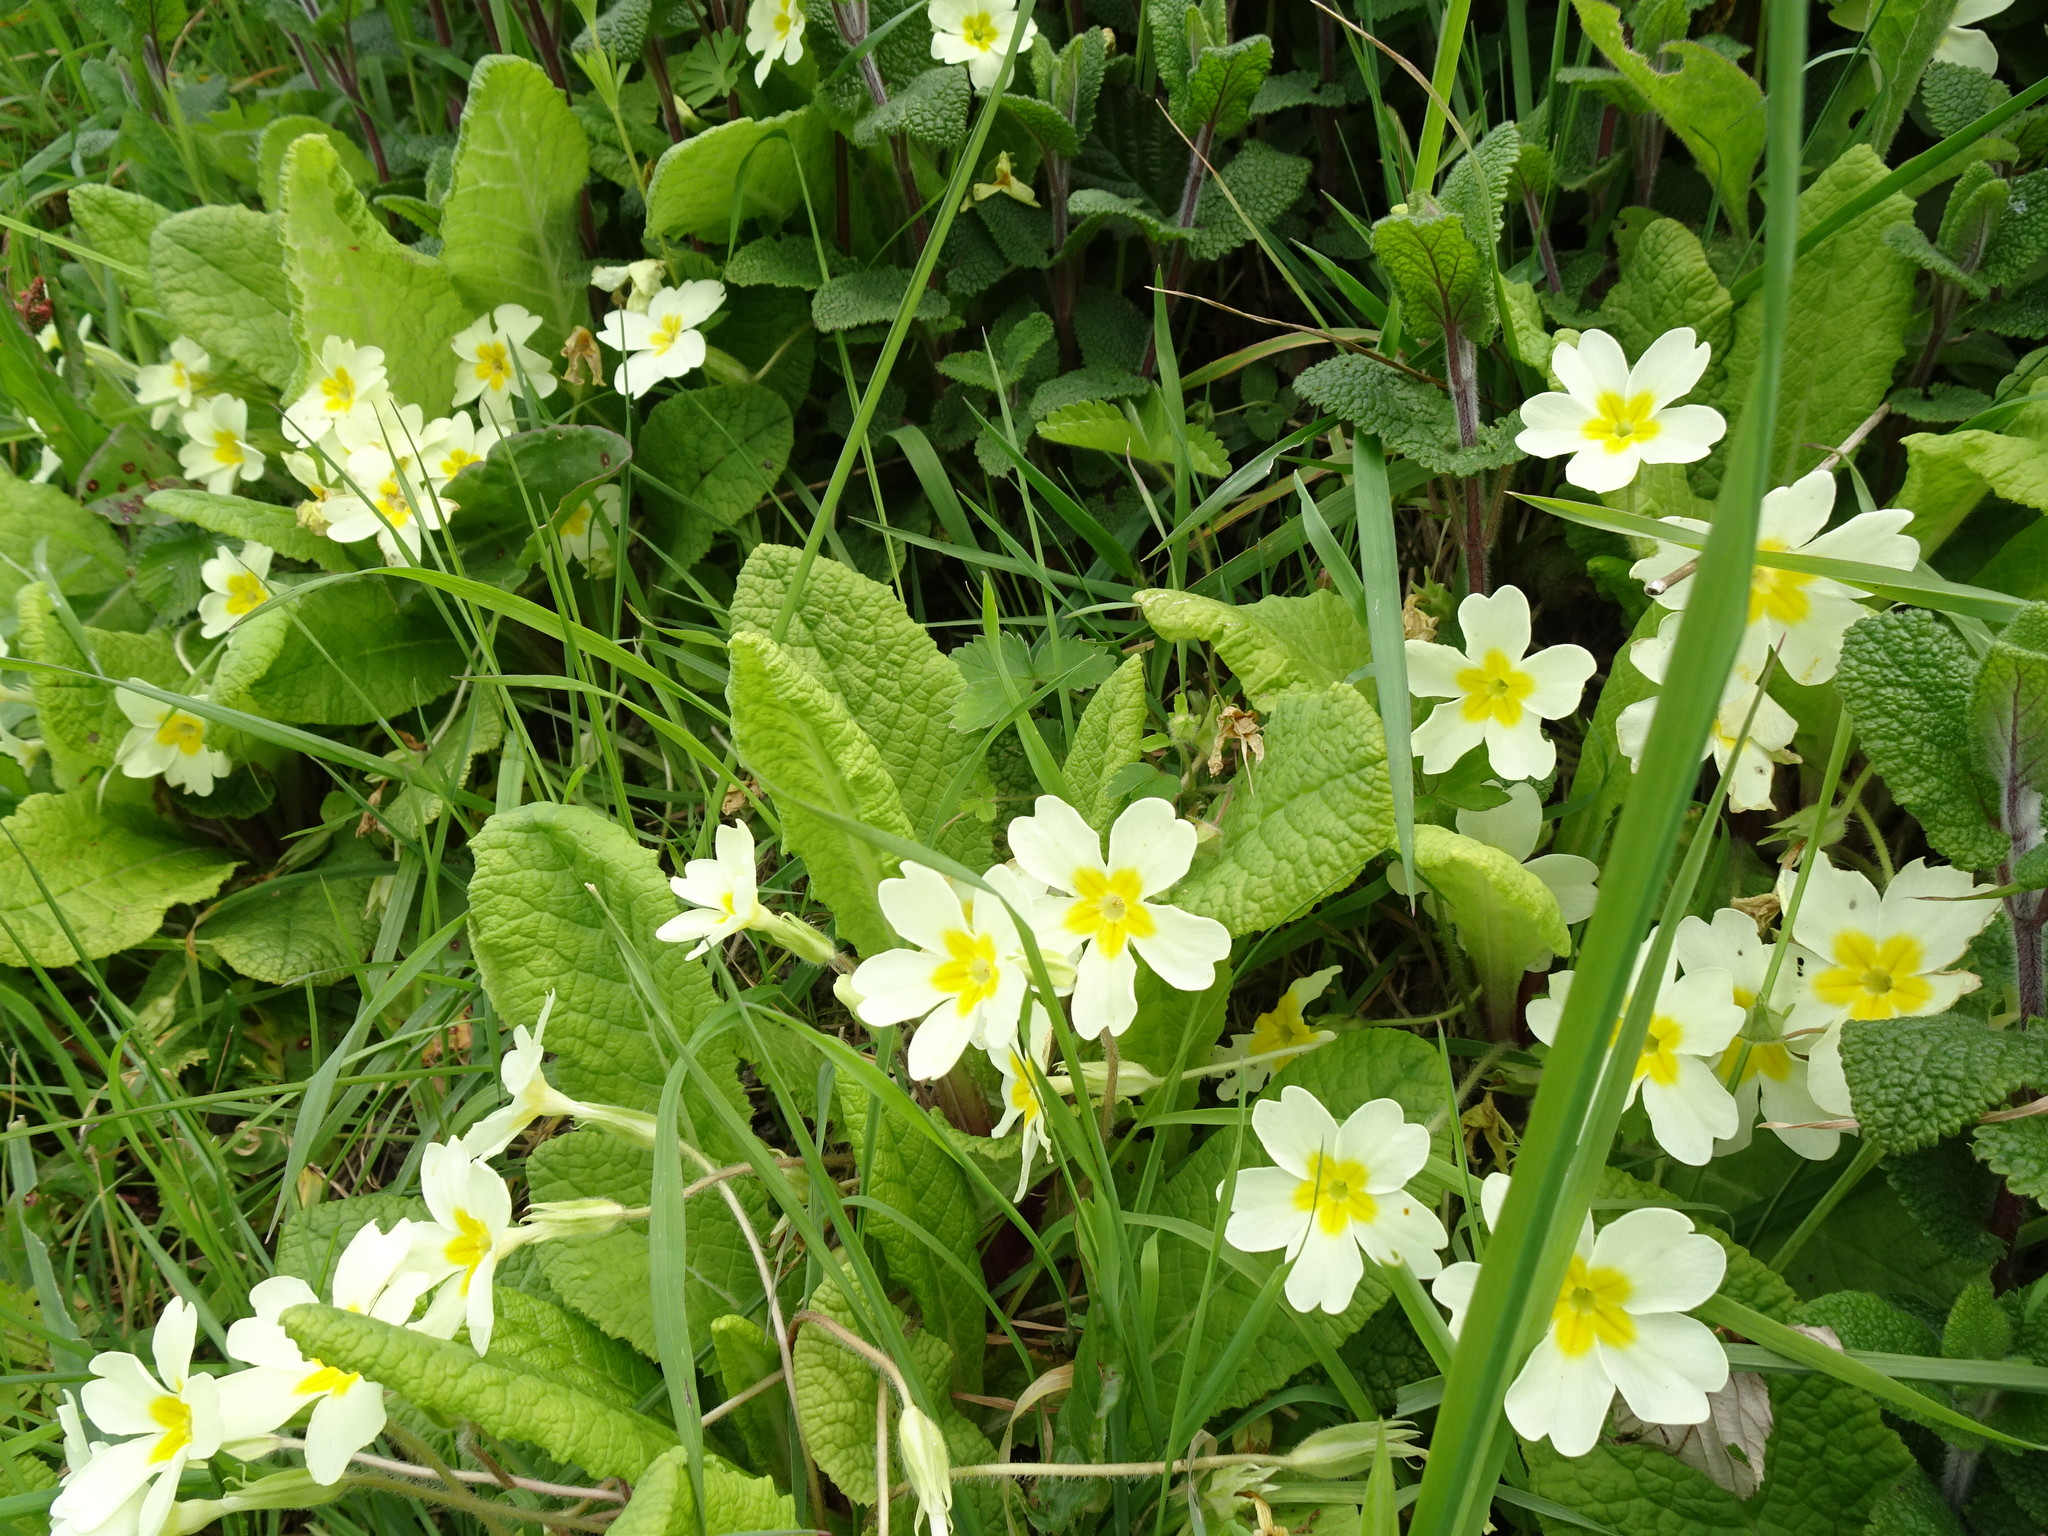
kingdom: Plantae
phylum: Tracheophyta
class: Magnoliopsida
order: Ericales
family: Primulaceae
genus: Primula
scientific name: Primula vulgaris
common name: Primrose
